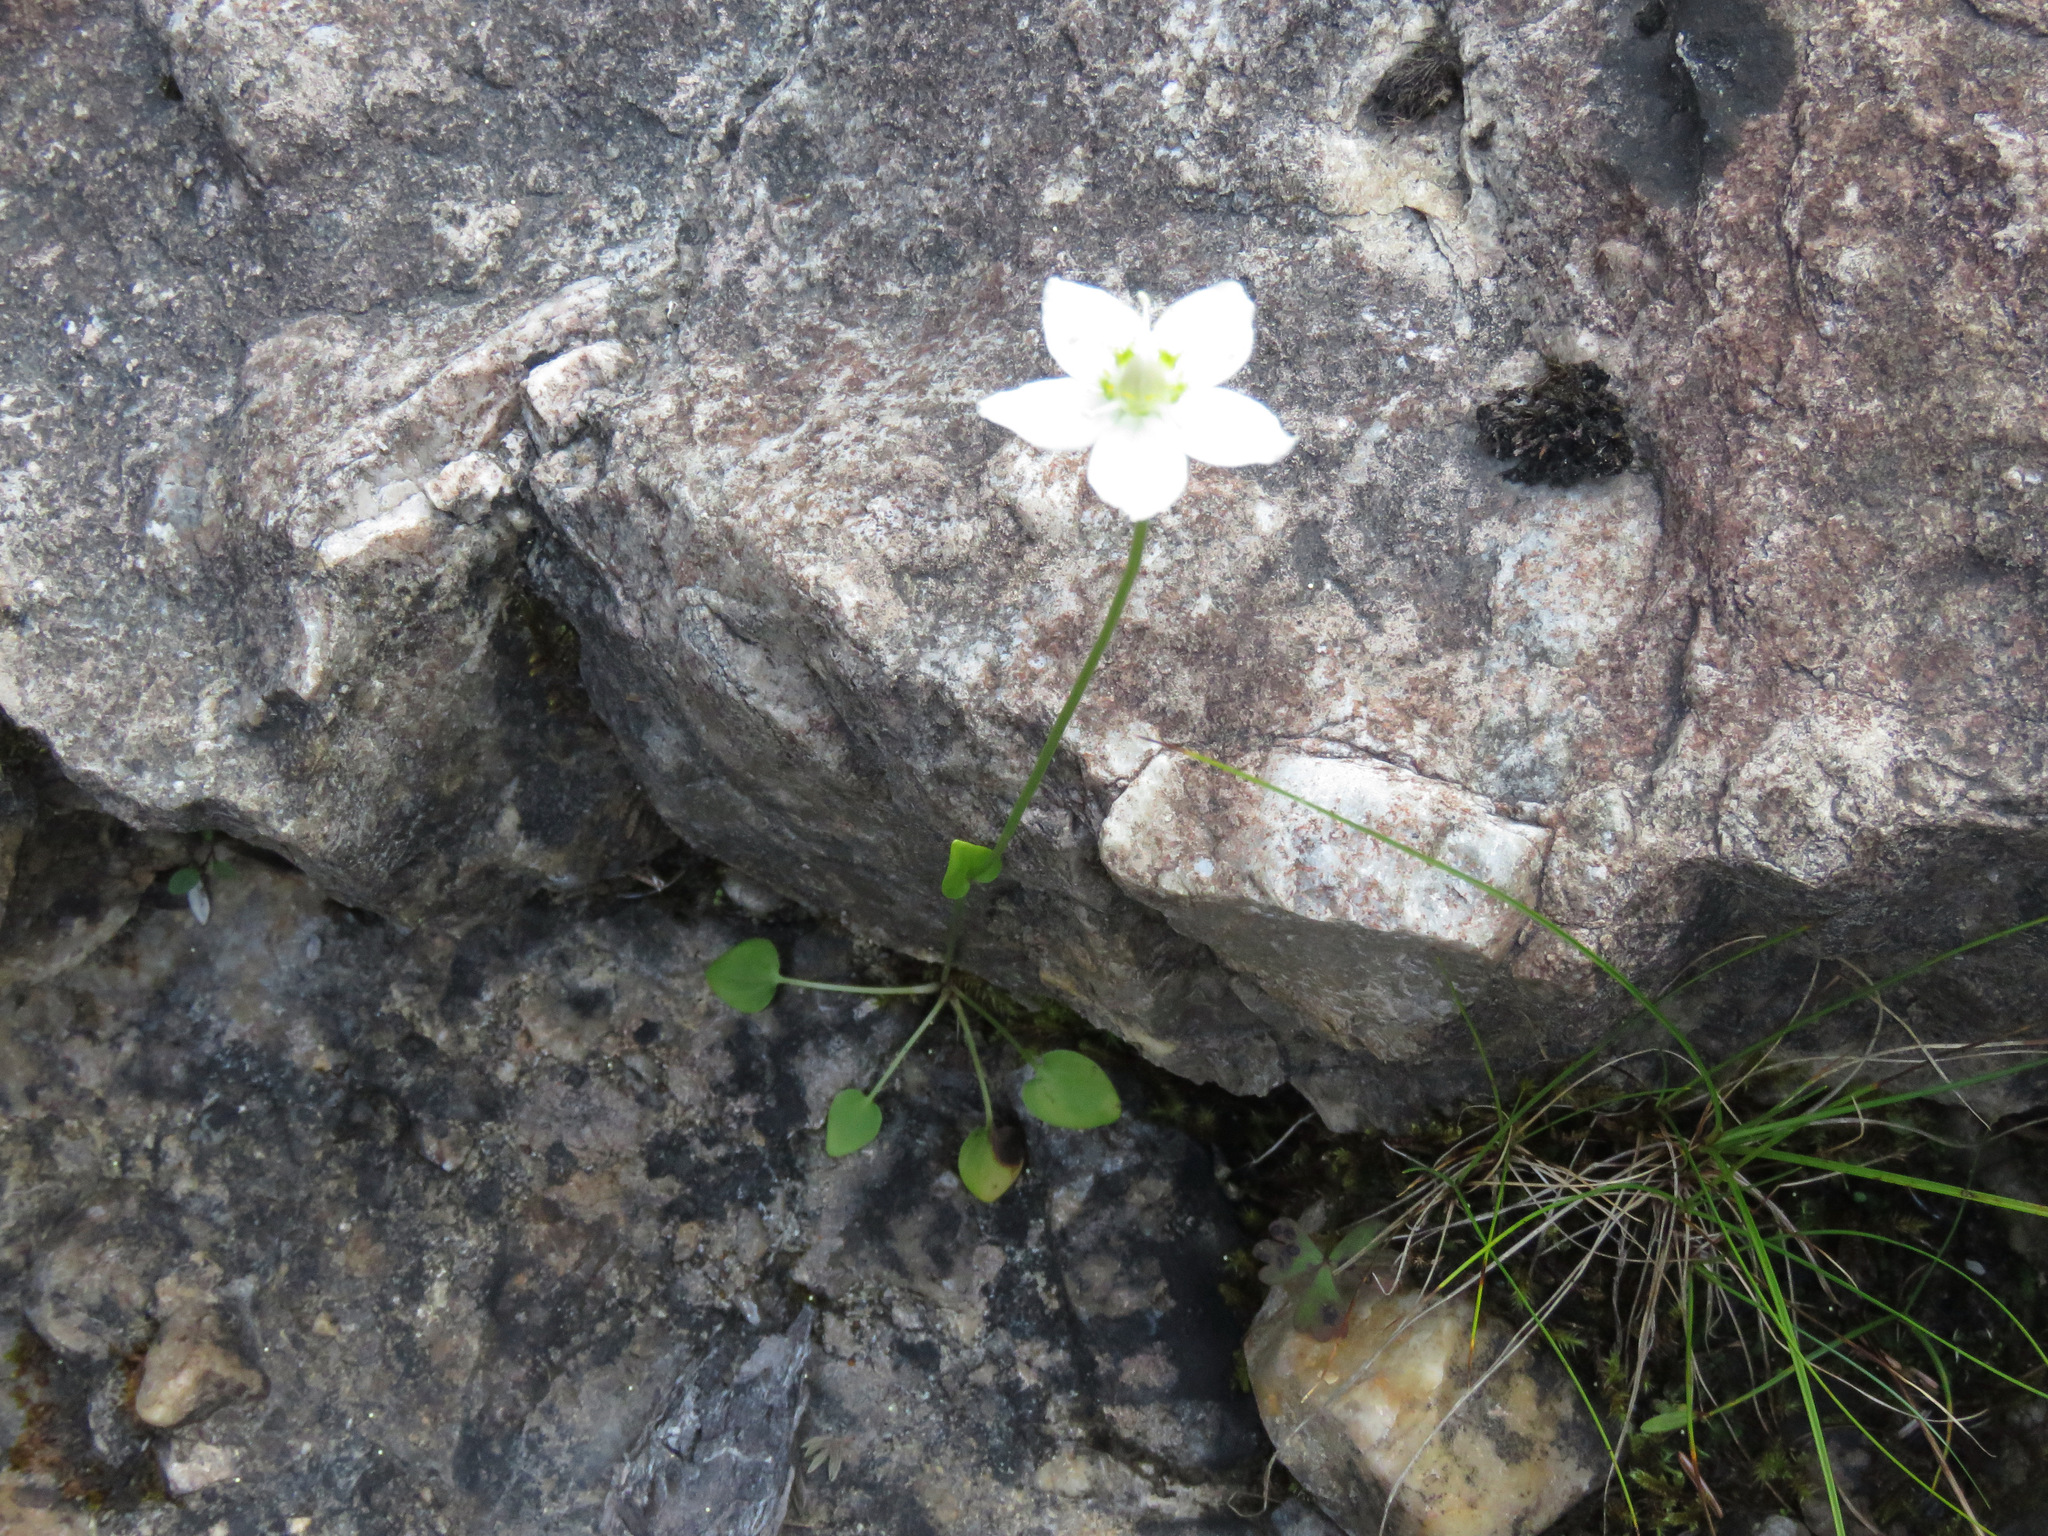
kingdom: Plantae
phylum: Tracheophyta
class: Magnoliopsida
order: Celastrales
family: Parnassiaceae
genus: Parnassia
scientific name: Parnassia palustris
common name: Grass-of-parnassus
